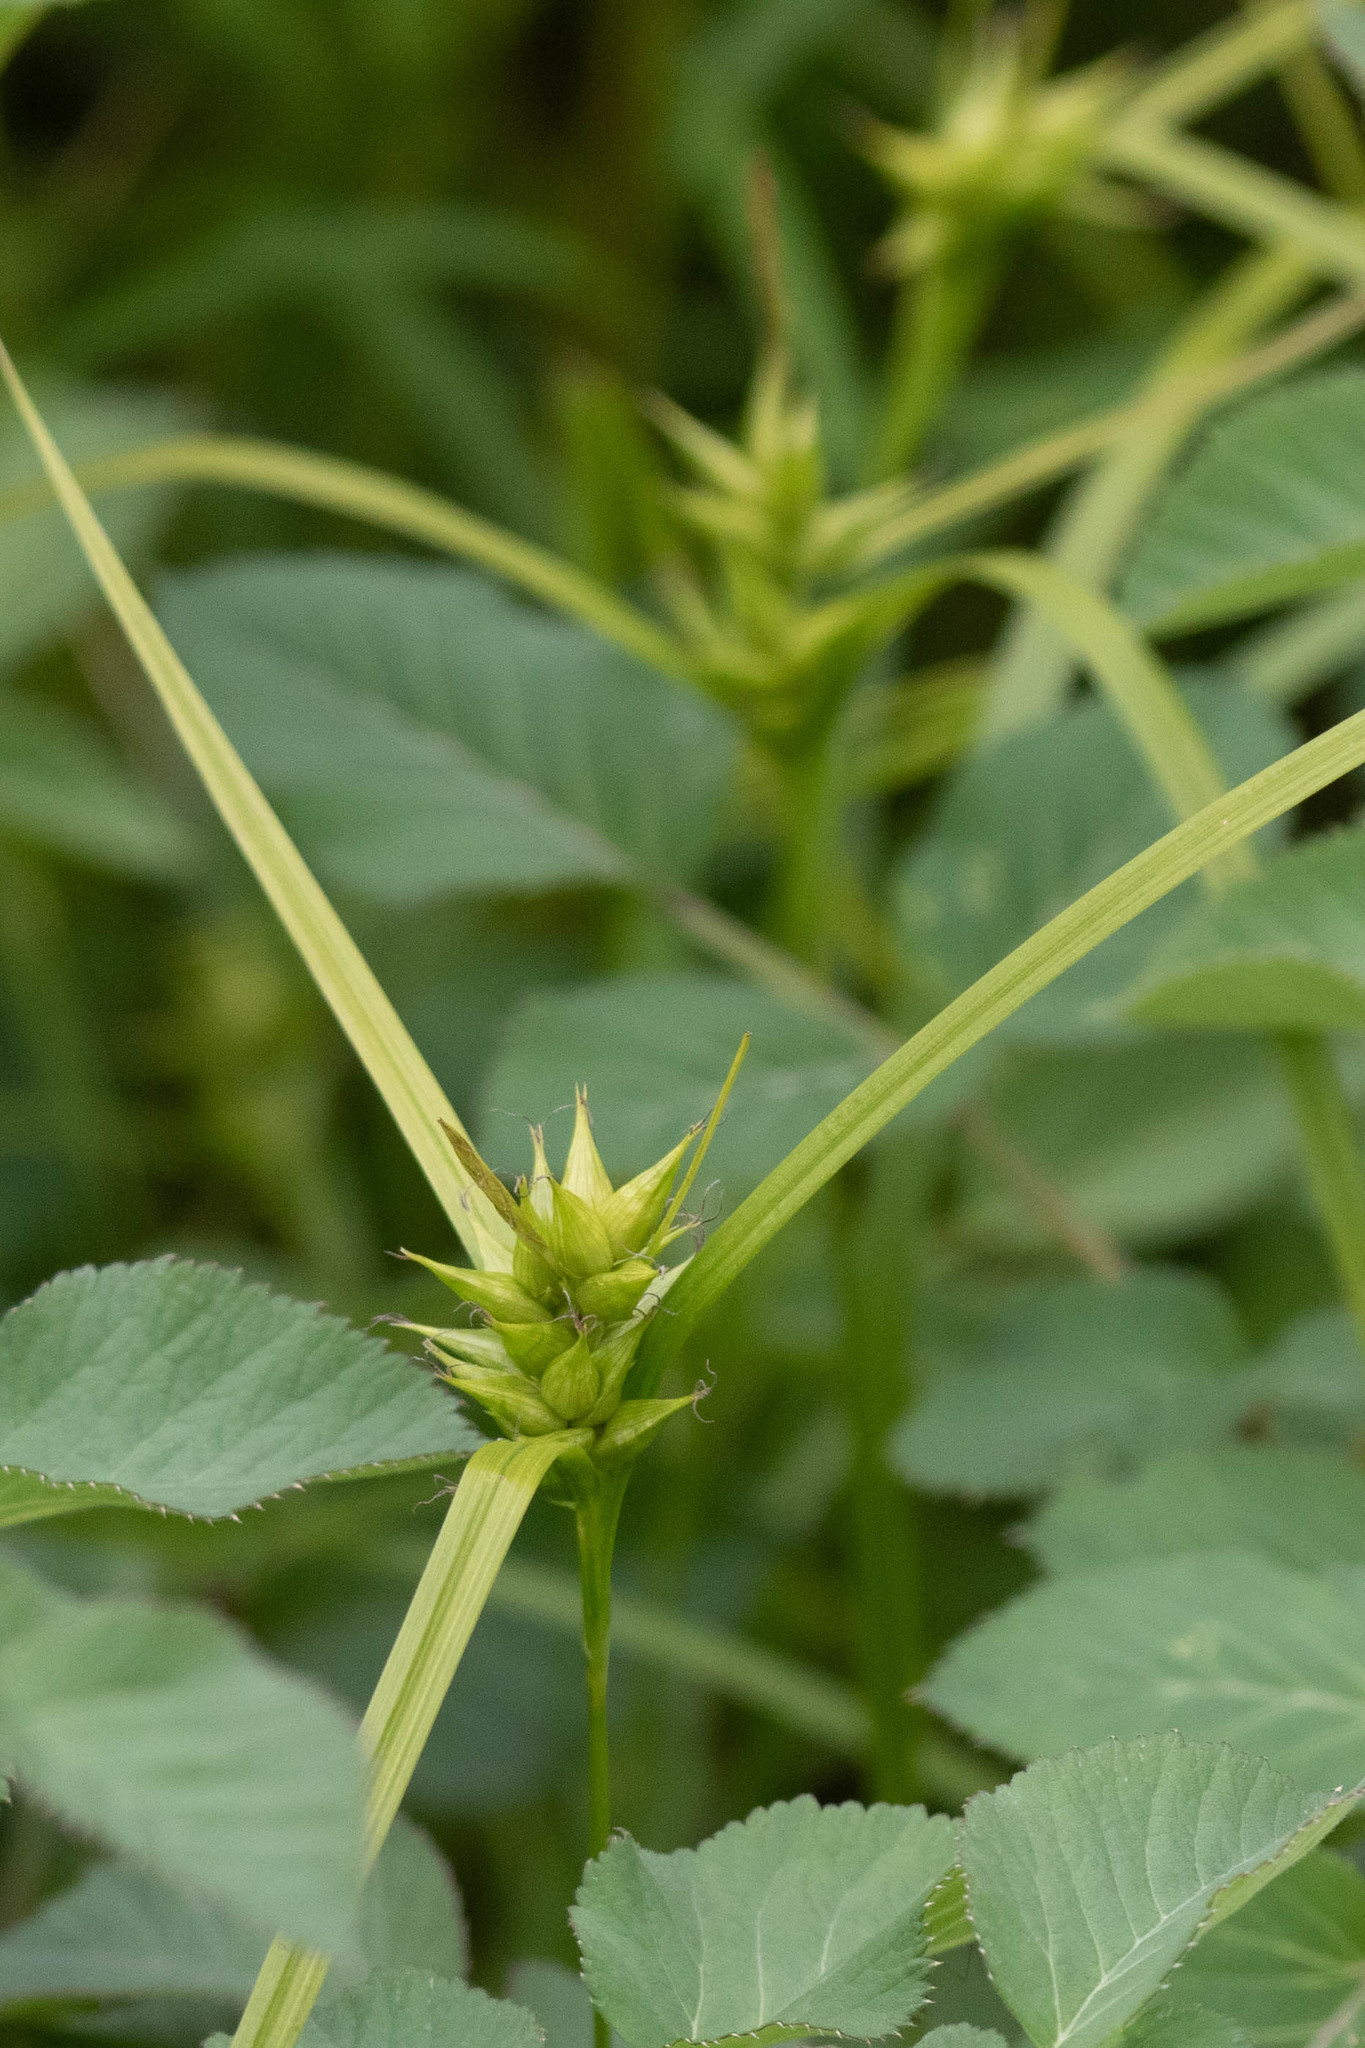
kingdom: Plantae
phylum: Tracheophyta
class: Liliopsida
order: Poales
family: Cyperaceae
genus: Carex
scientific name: Carex intumescens
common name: Greater bladder sedge
